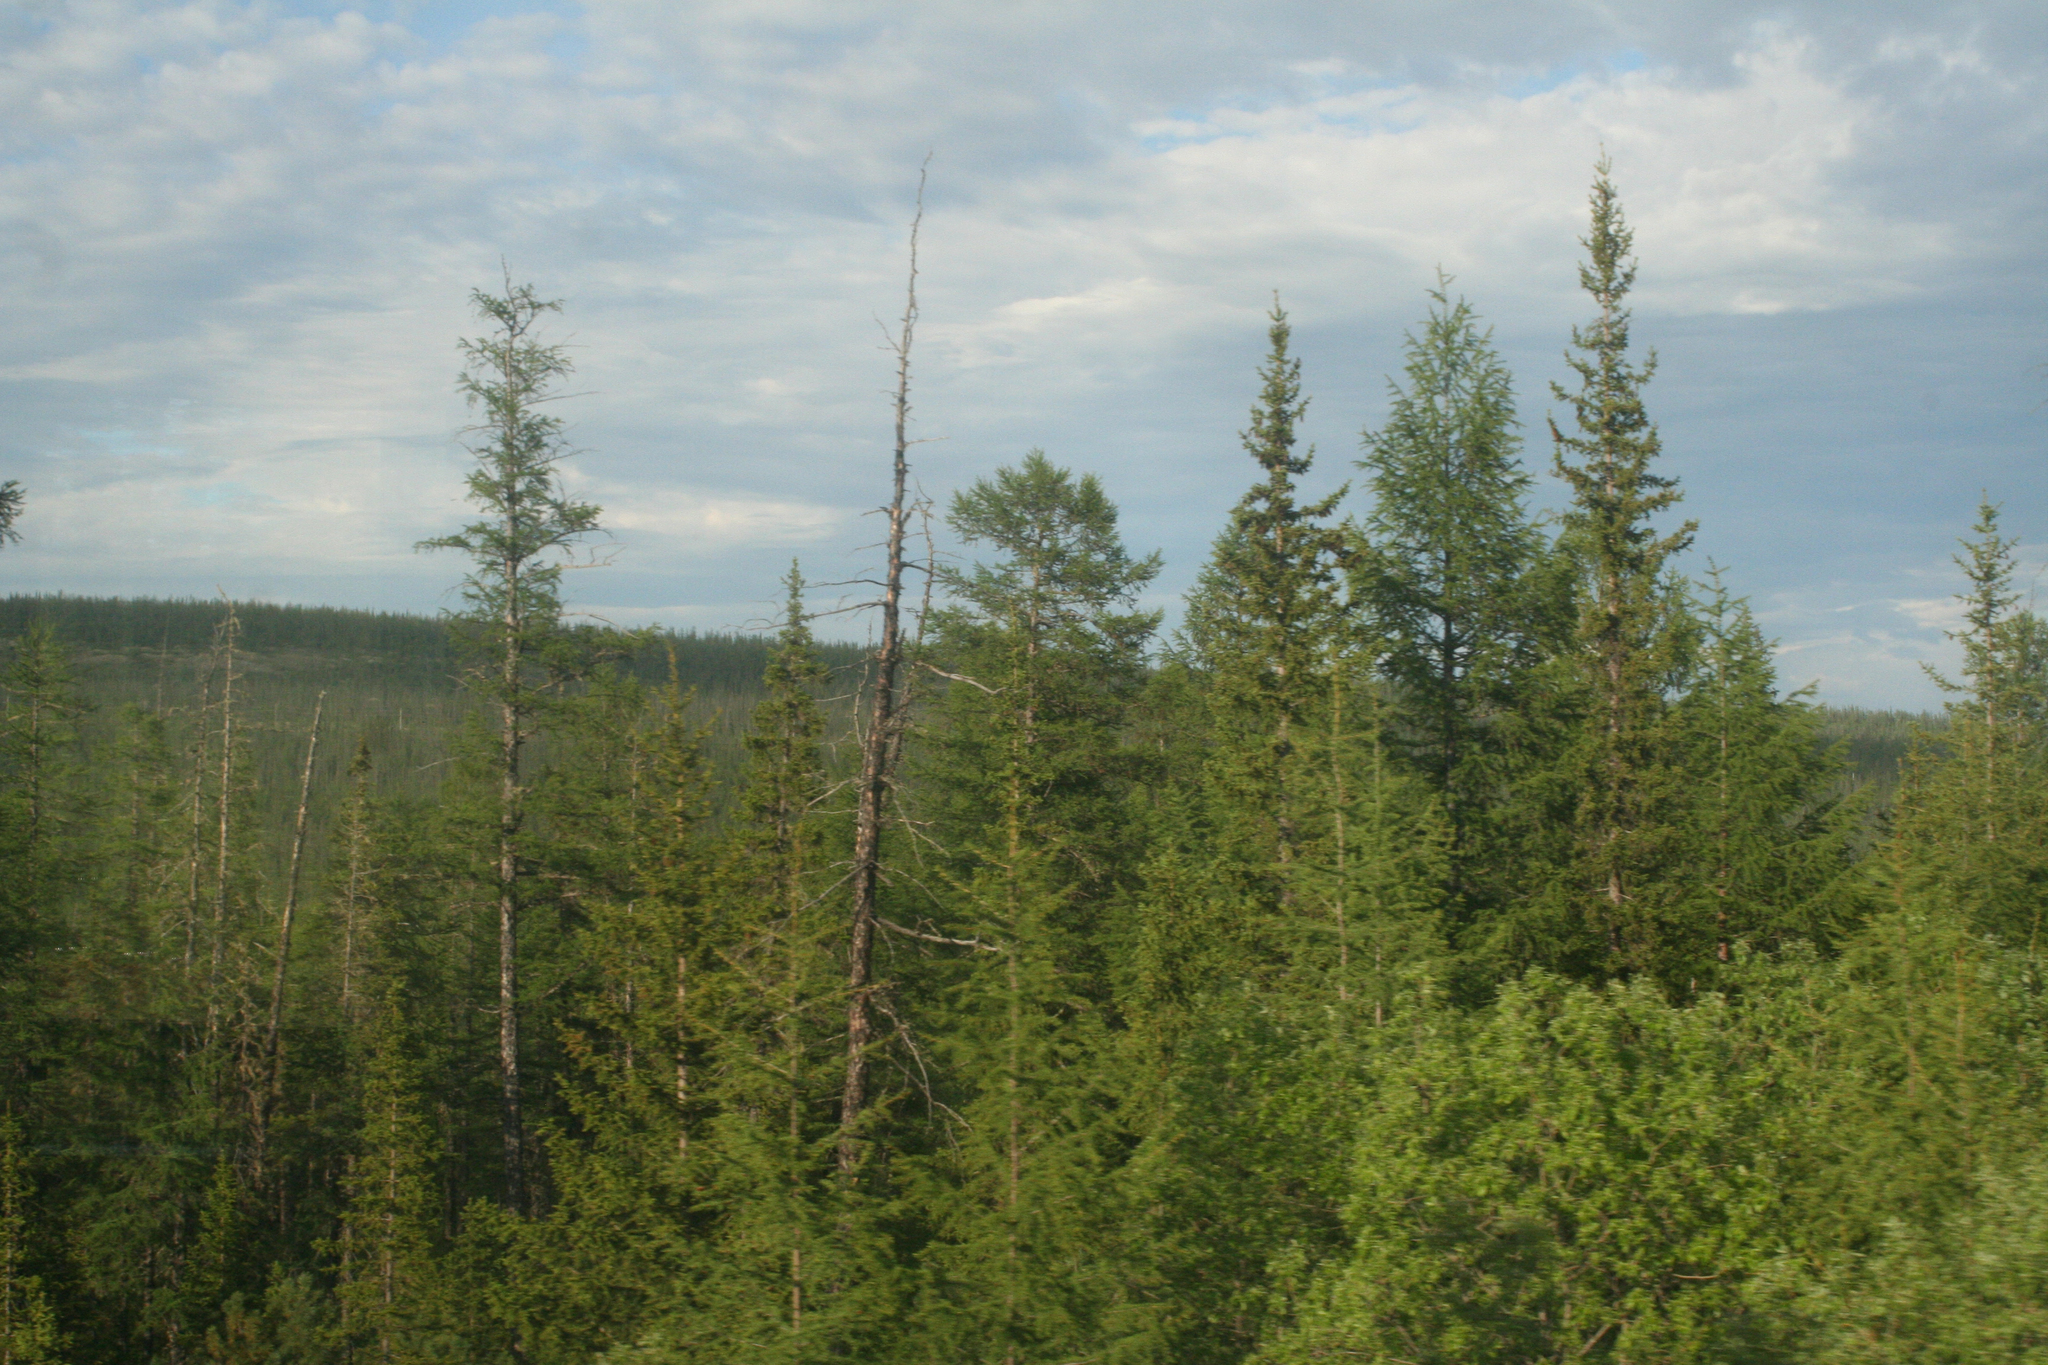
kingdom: Plantae
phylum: Tracheophyta
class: Pinopsida
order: Pinales
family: Pinaceae
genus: Larix
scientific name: Larix gmelinii
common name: Dahurian larch
